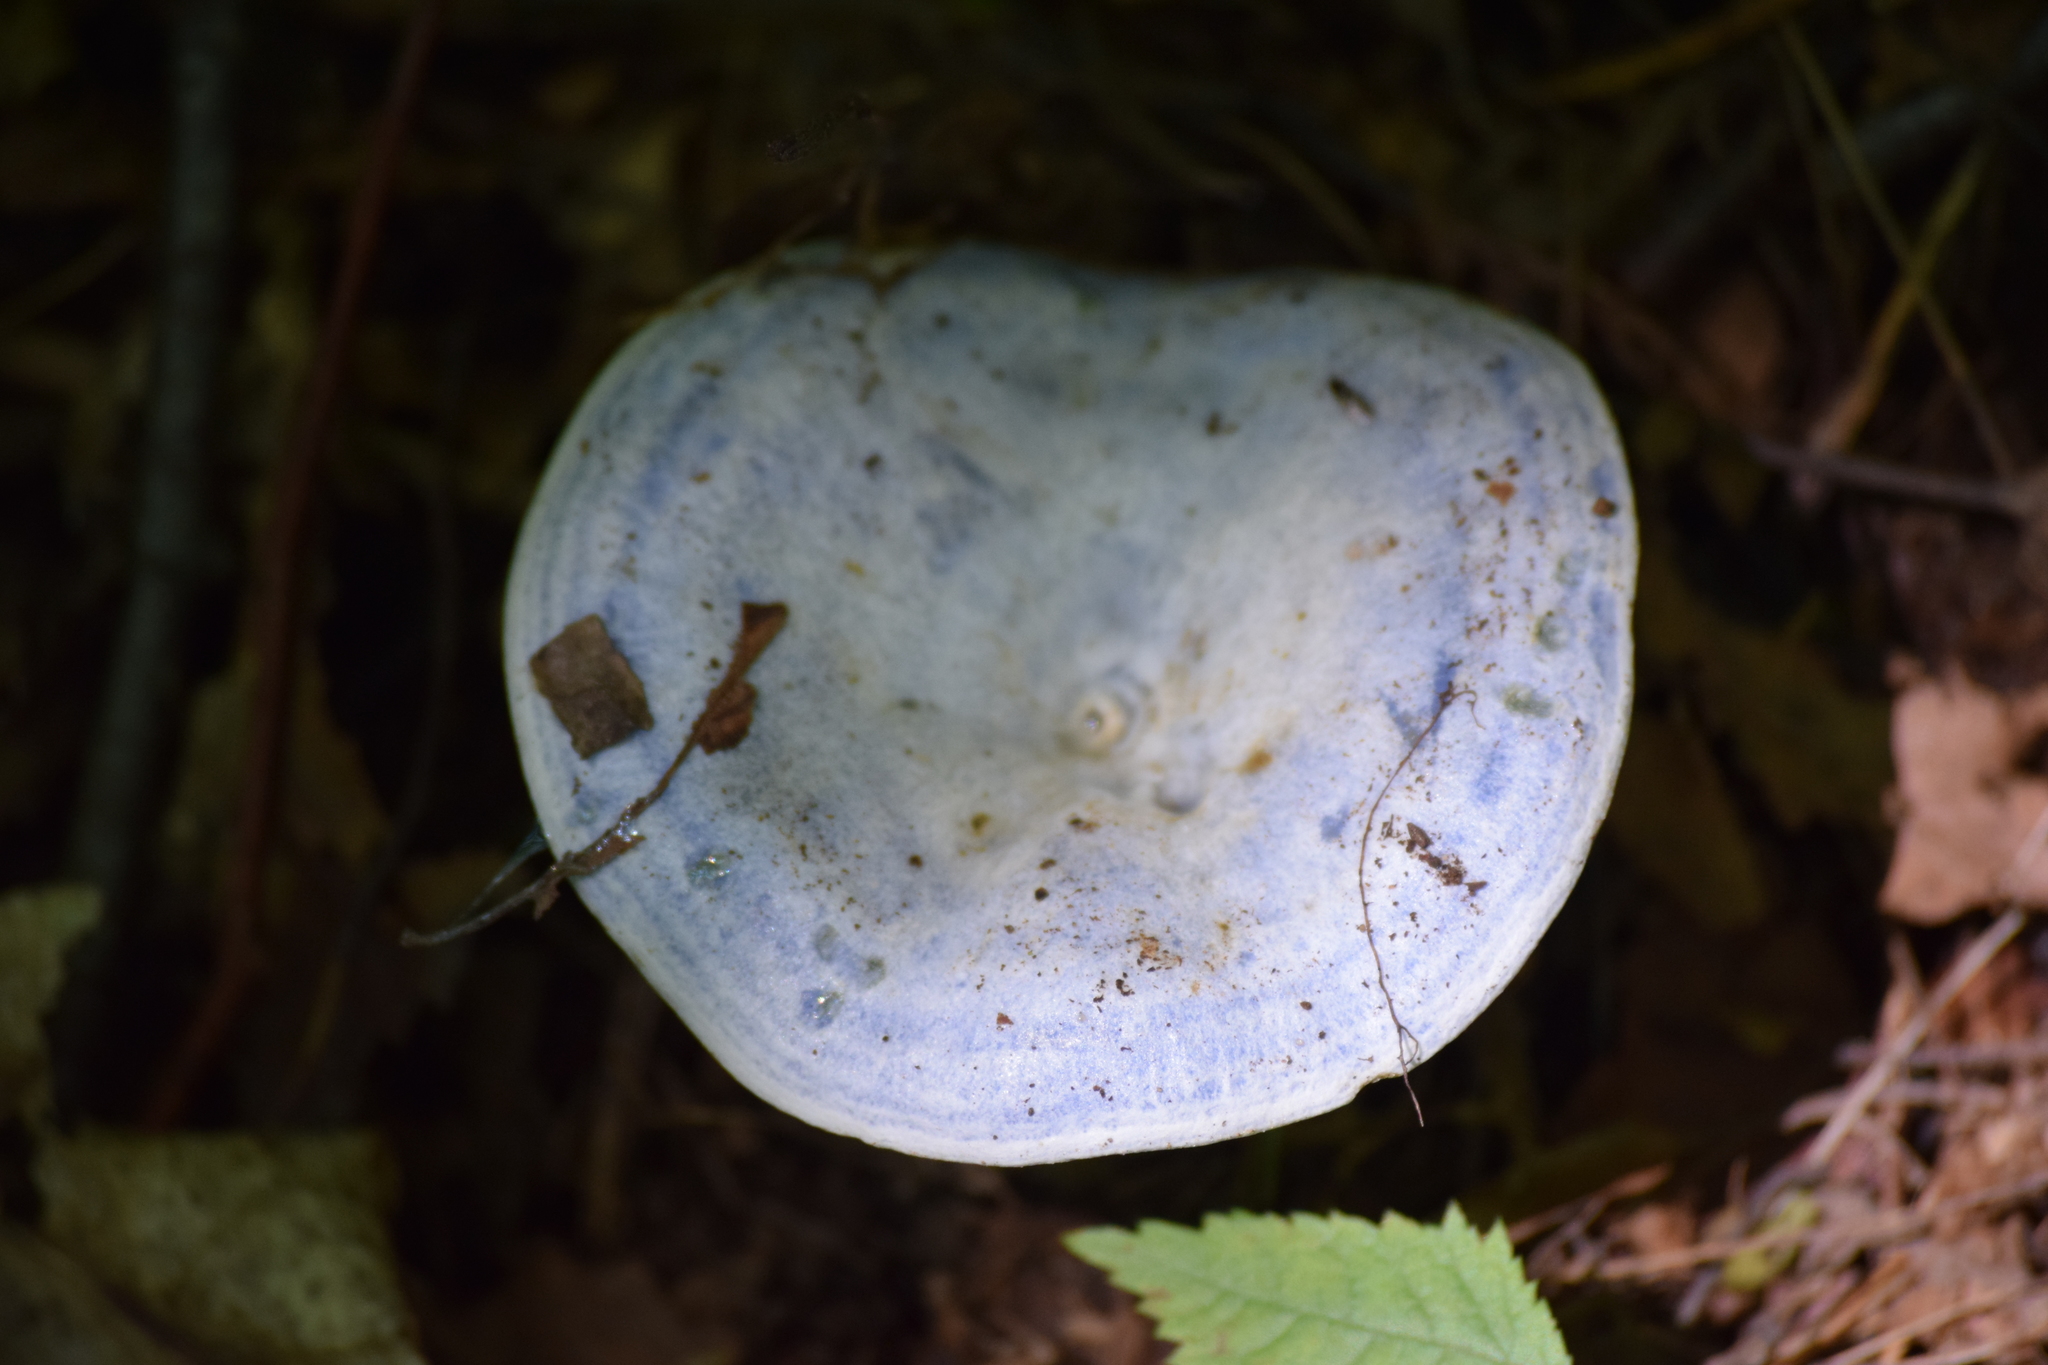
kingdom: Fungi
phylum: Basidiomycota
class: Agaricomycetes
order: Russulales
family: Russulaceae
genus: Lactarius
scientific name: Lactarius indigo
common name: Indigo milk cap
